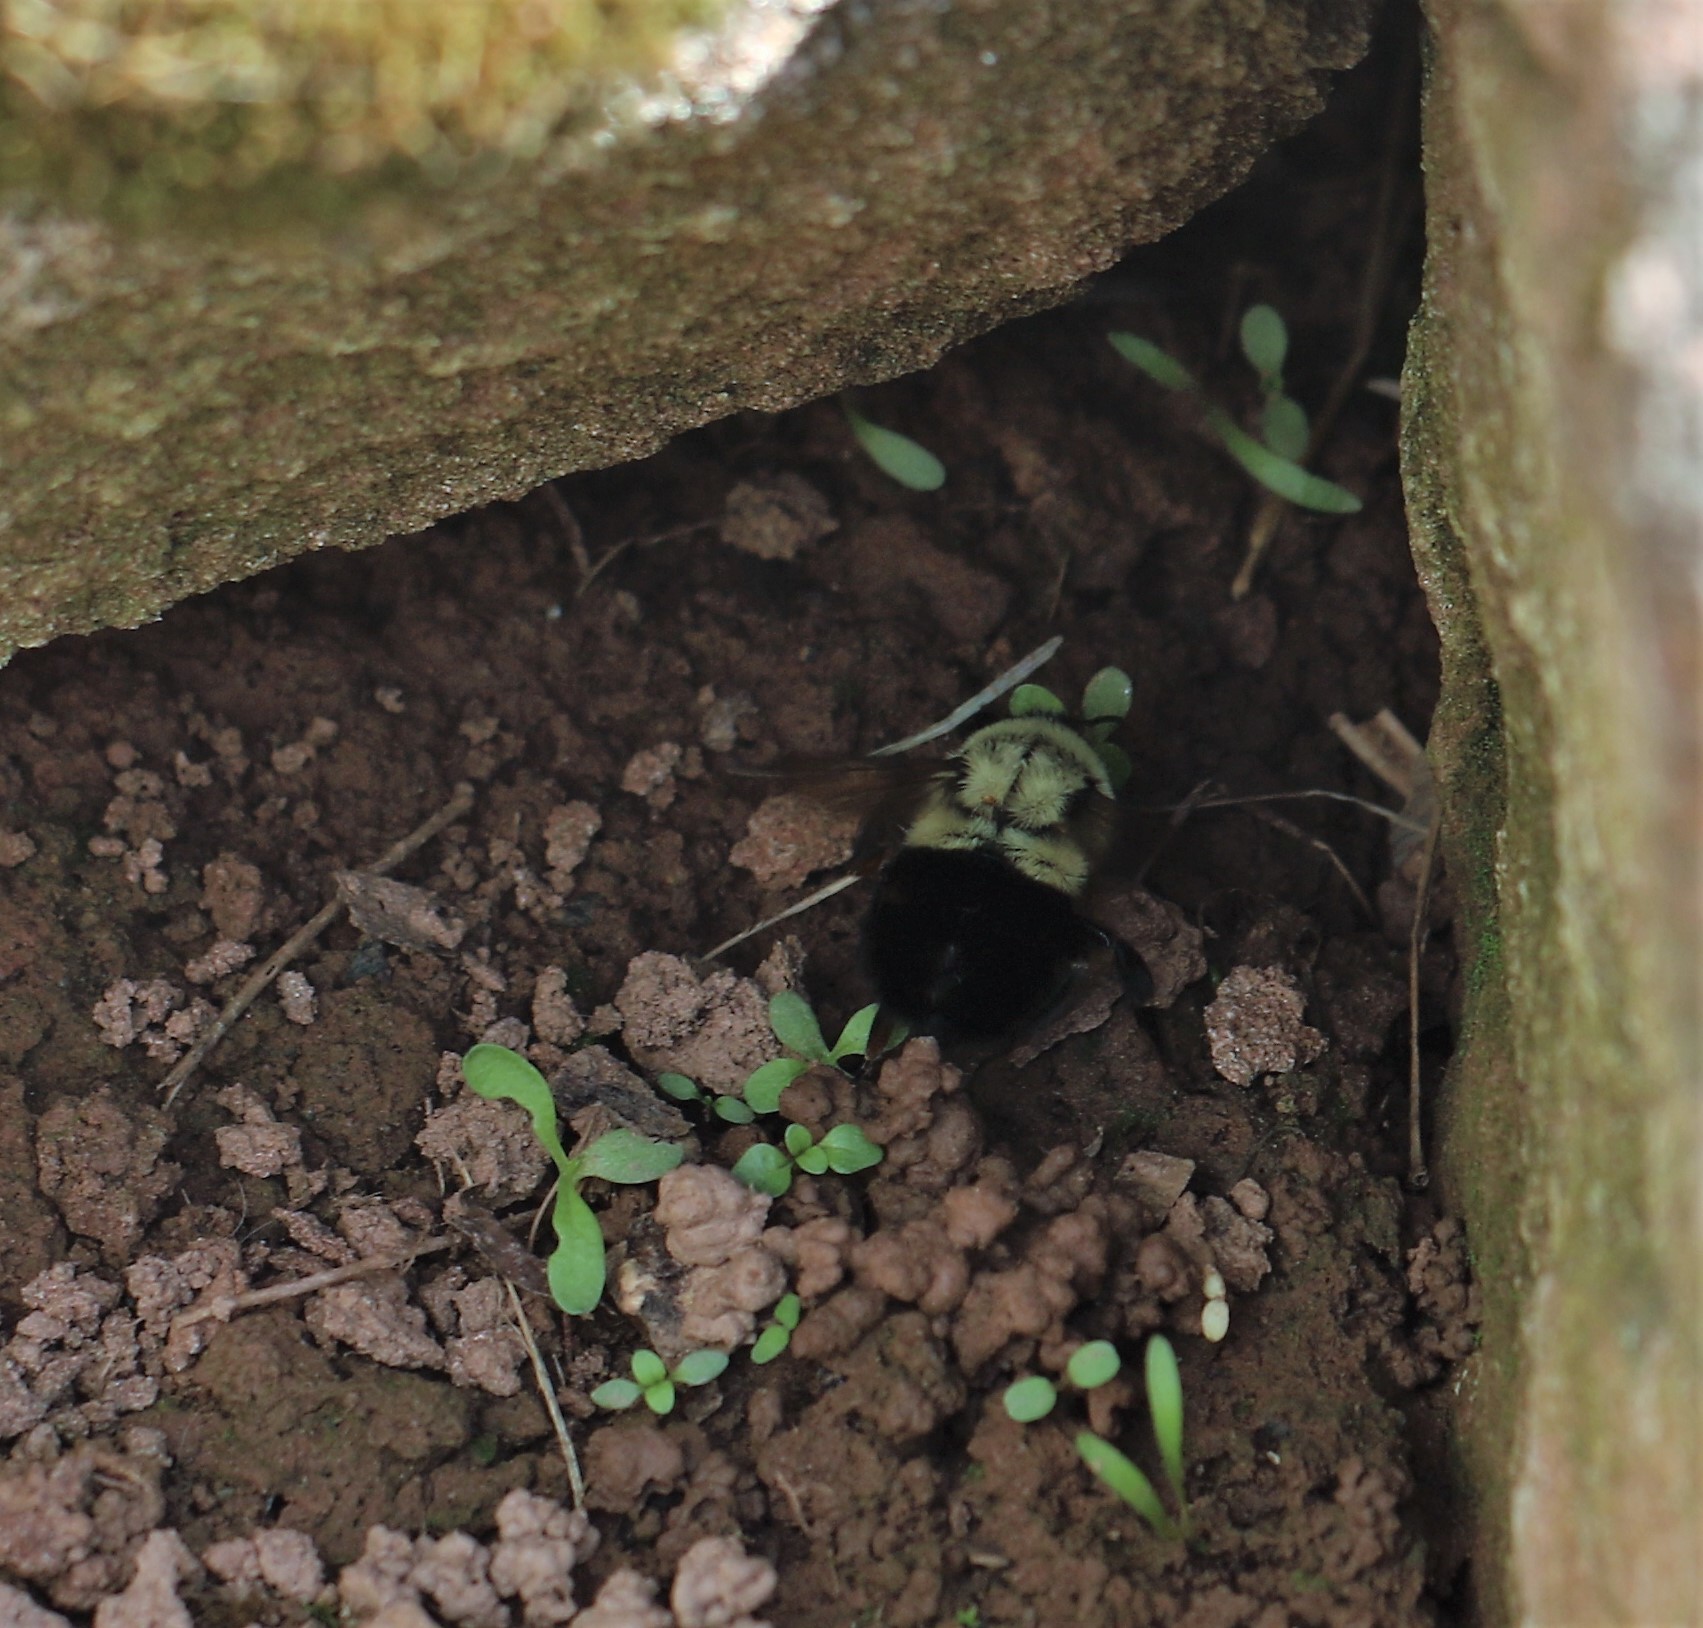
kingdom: Animalia
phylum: Arthropoda
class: Insecta
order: Hymenoptera
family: Apidae
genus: Bombus
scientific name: Bombus impatiens
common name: Common eastern bumble bee
